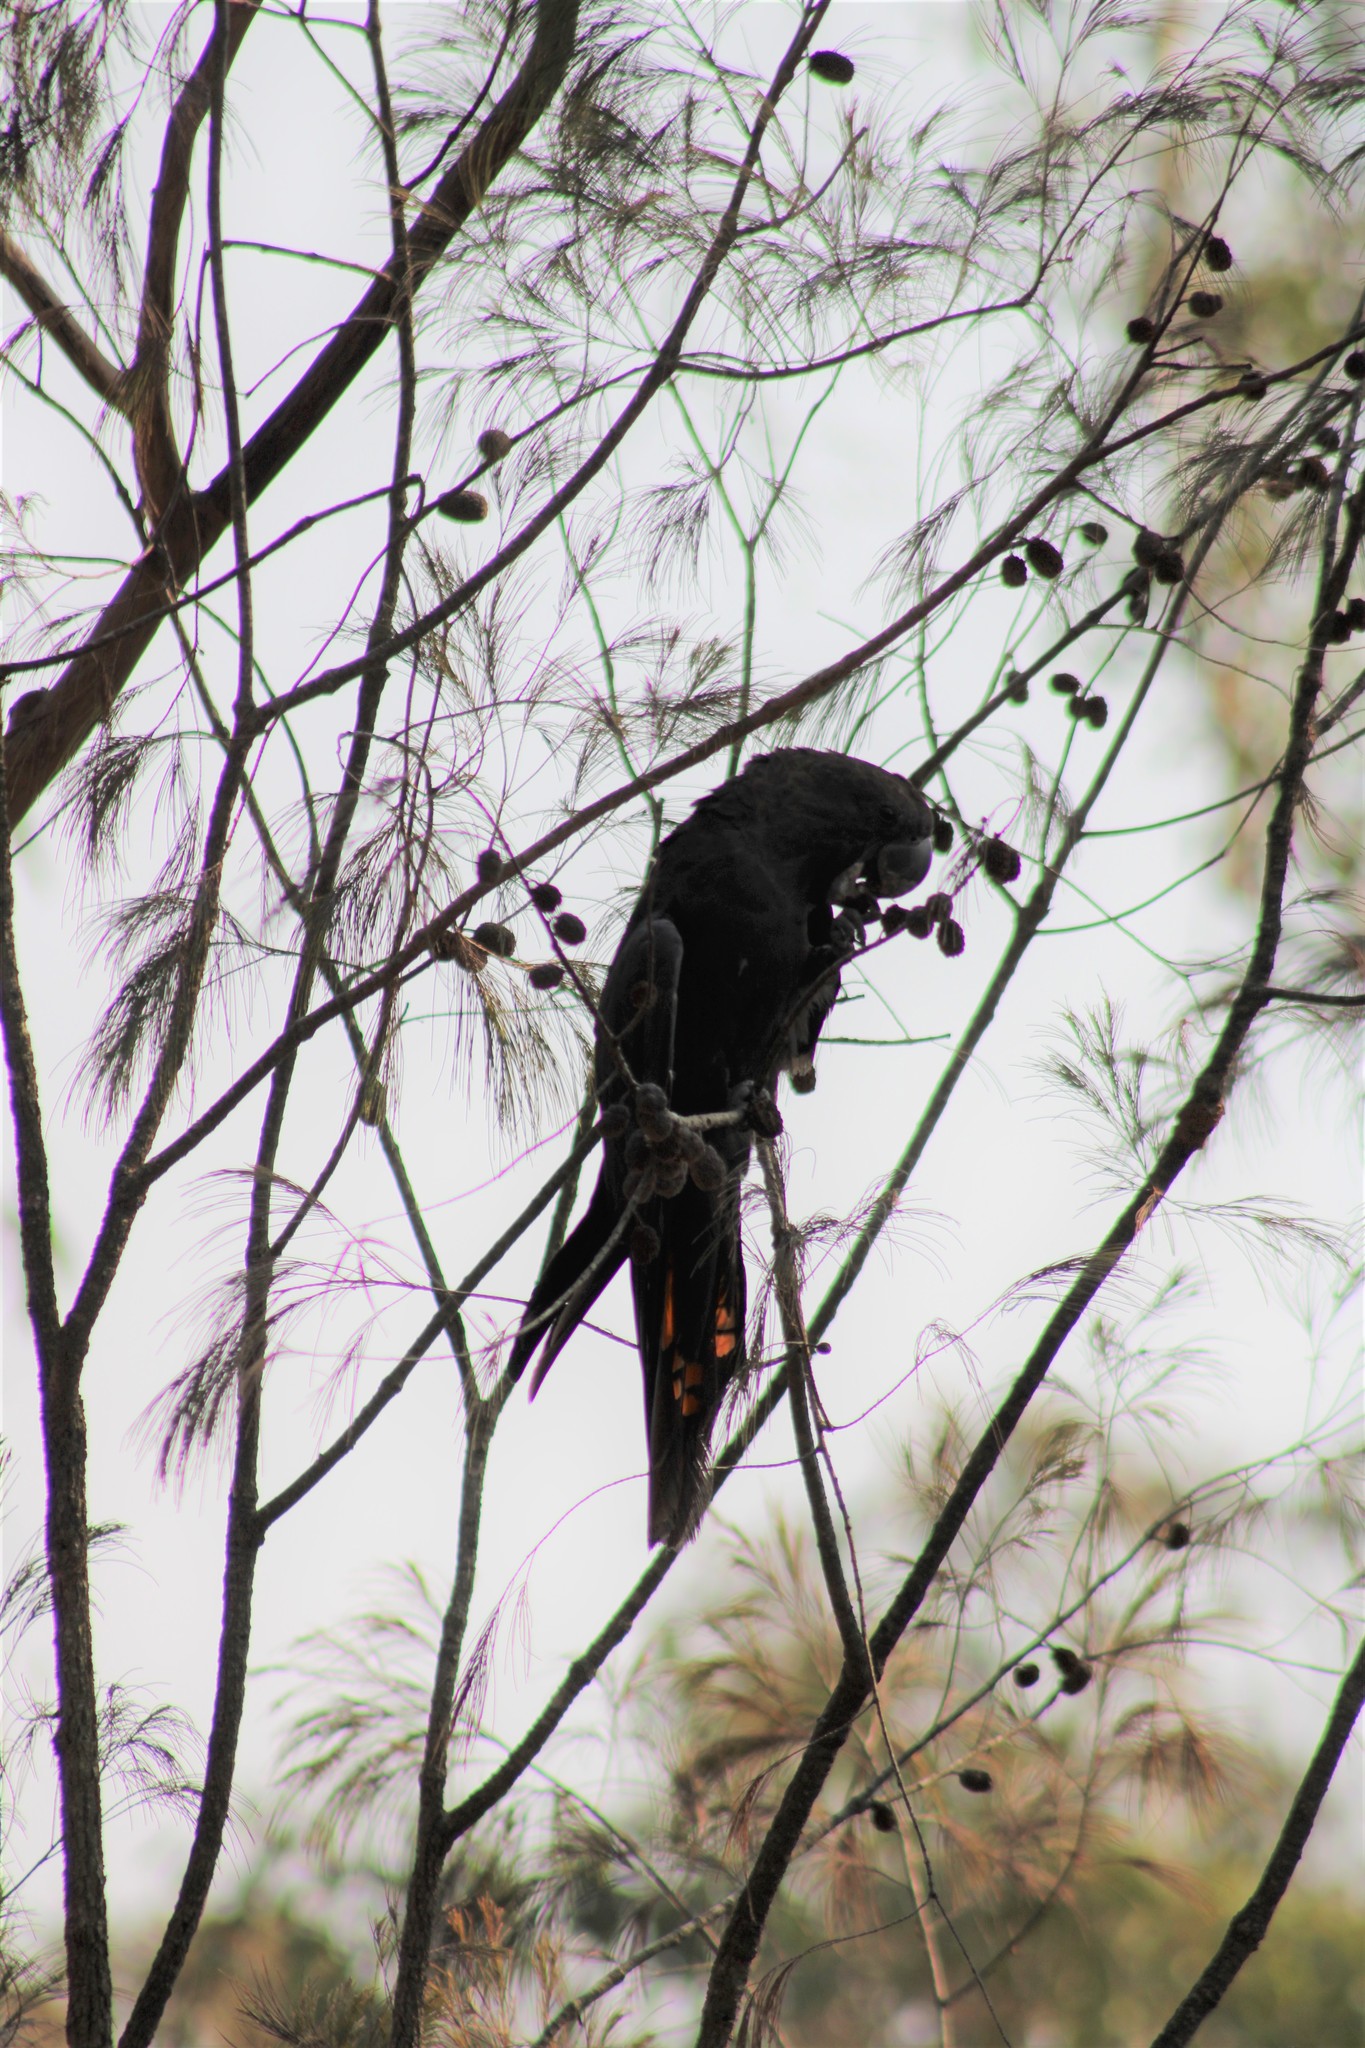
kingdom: Animalia
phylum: Chordata
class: Aves
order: Psittaciformes
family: Psittacidae
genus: Calyptorhynchus
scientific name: Calyptorhynchus lathami
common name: Glossy black cockatoo
